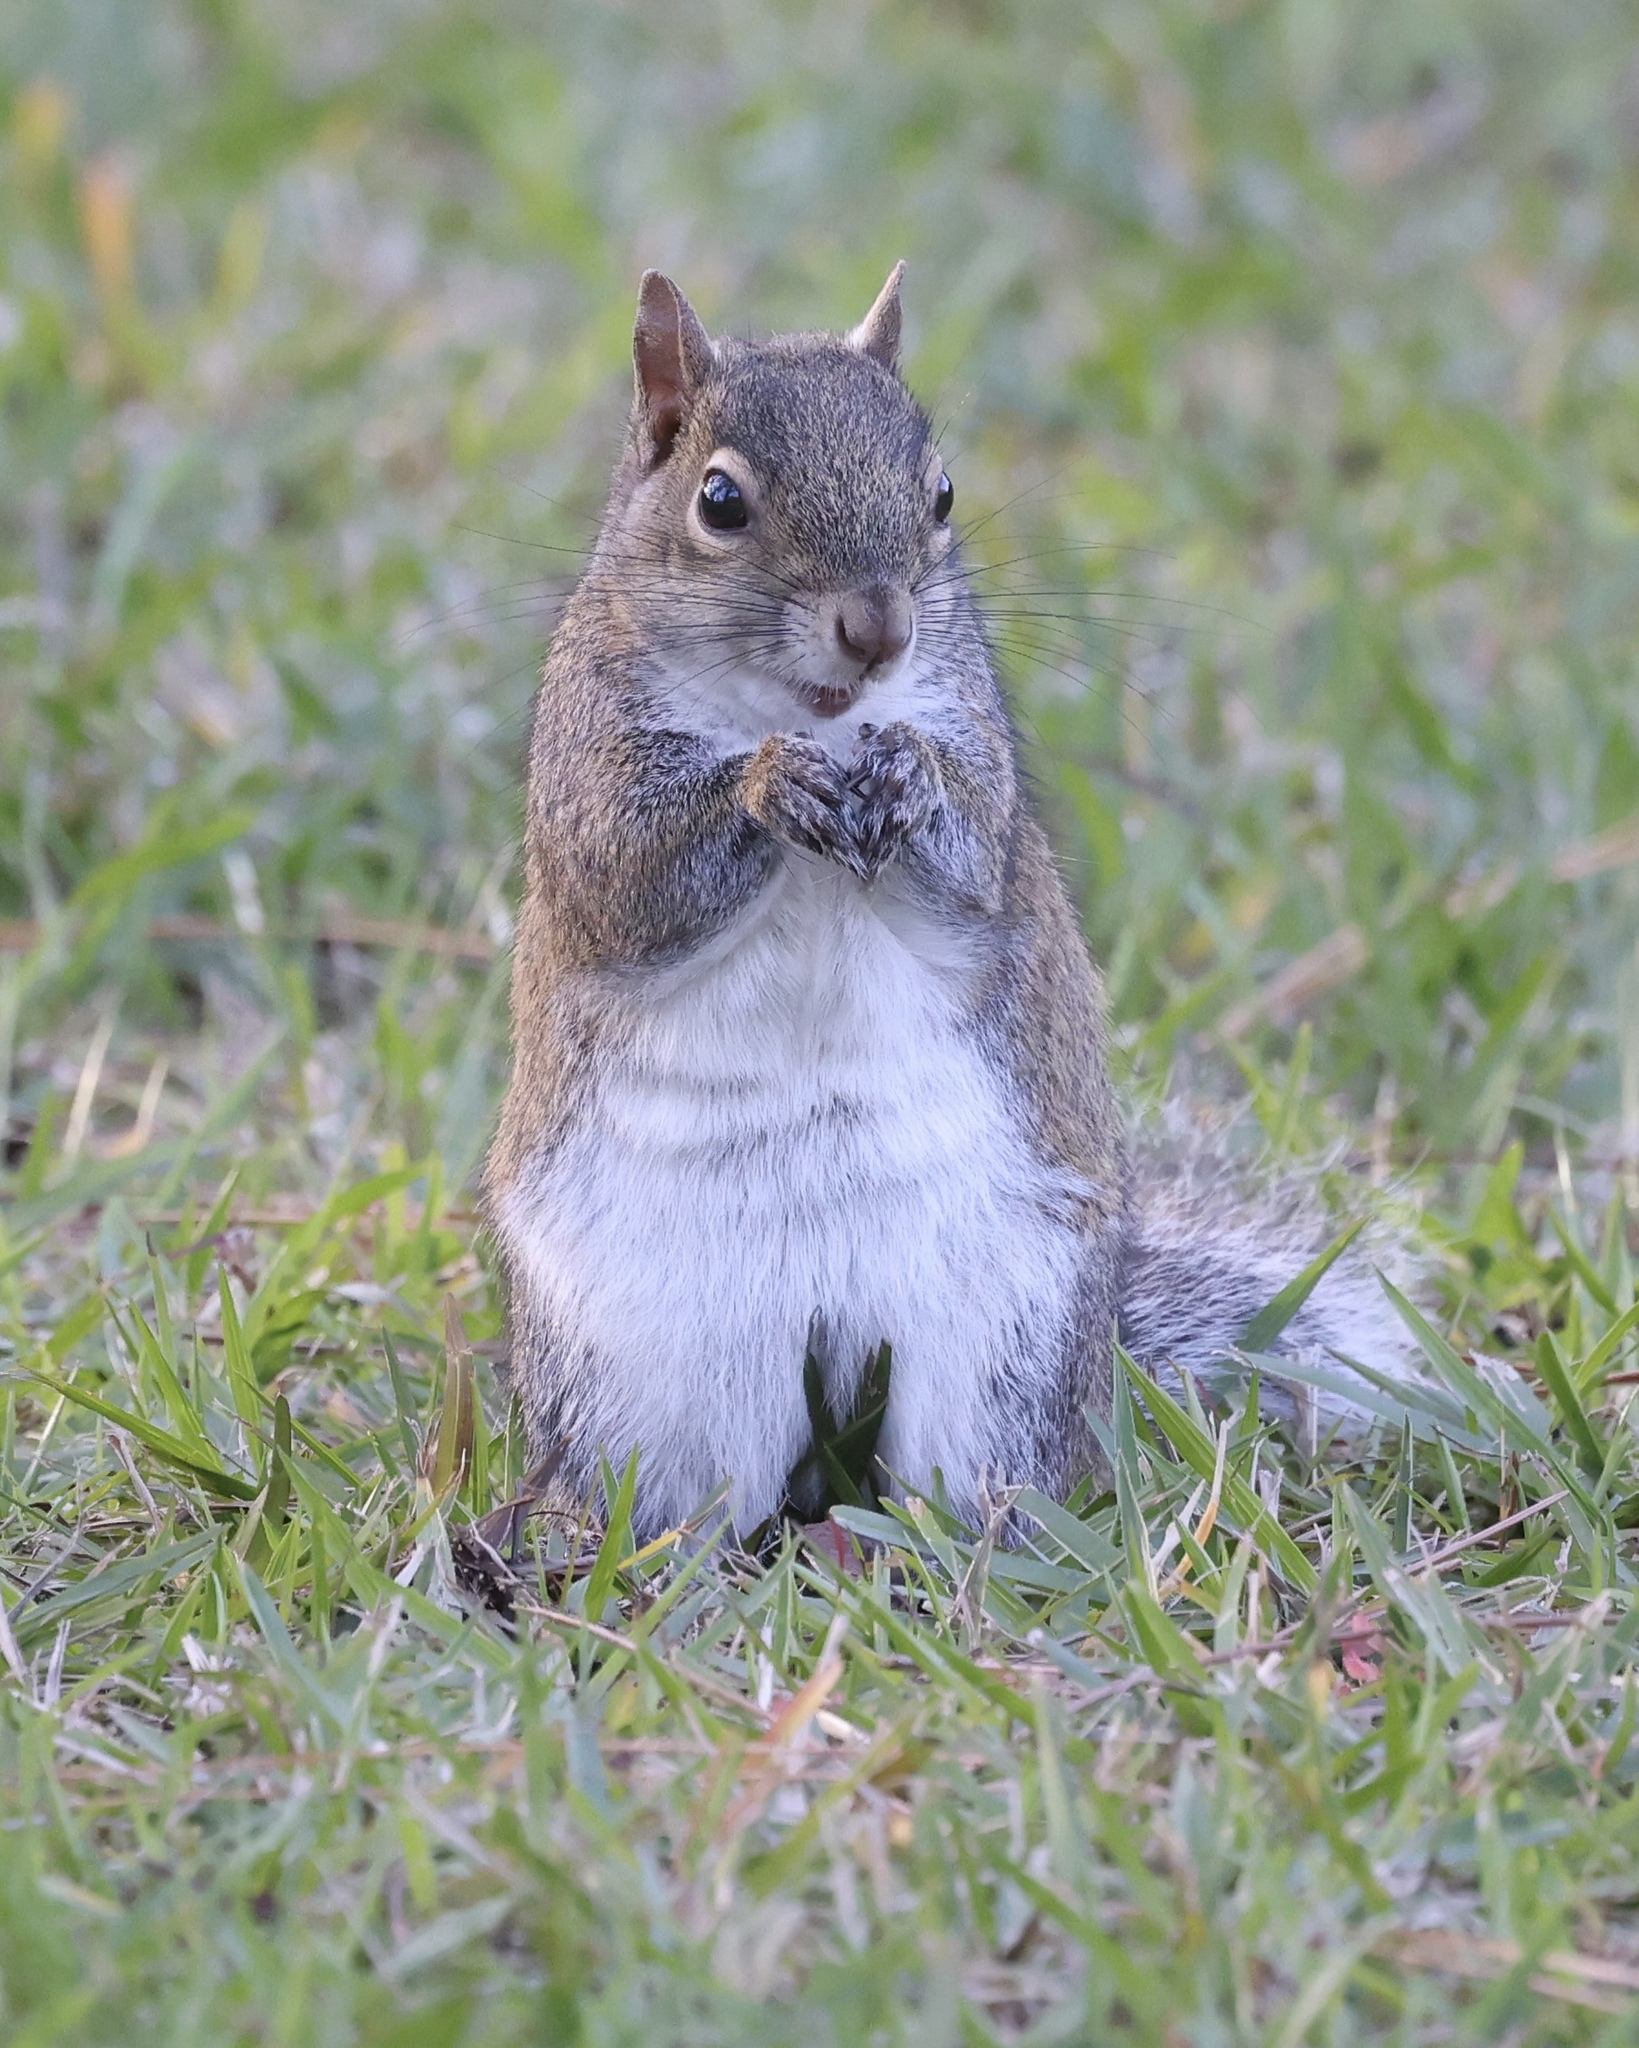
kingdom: Animalia
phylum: Chordata
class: Mammalia
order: Rodentia
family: Sciuridae
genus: Sciurus
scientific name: Sciurus carolinensis
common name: Eastern gray squirrel
